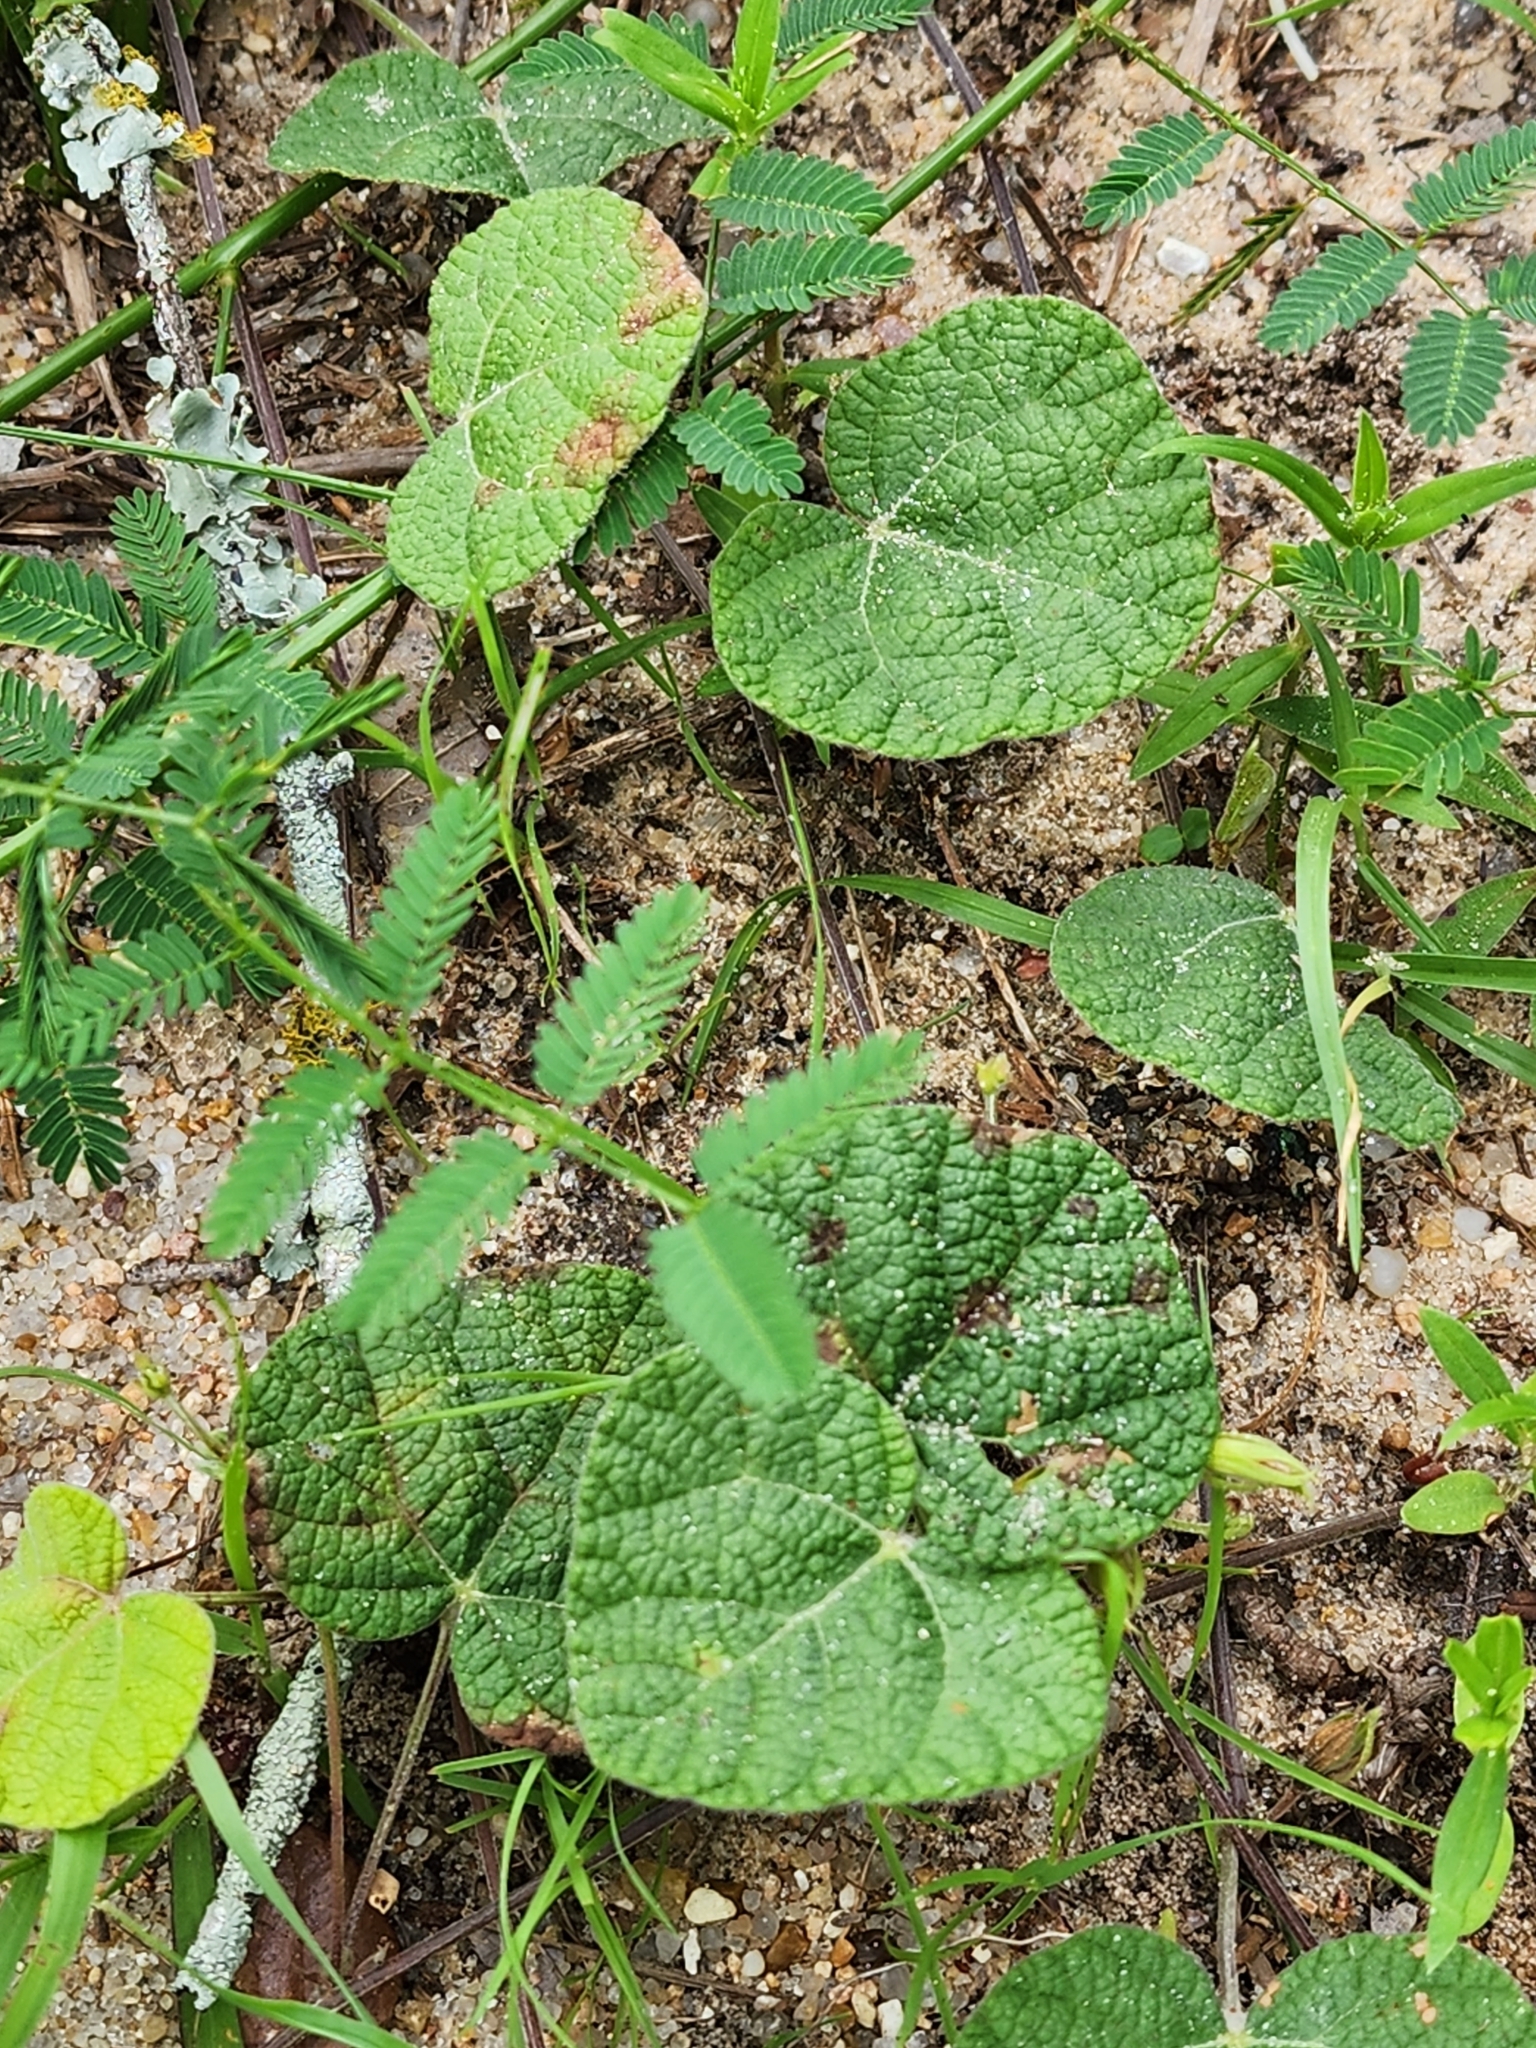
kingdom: Plantae
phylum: Tracheophyta
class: Magnoliopsida
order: Fabales
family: Fabaceae
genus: Rhynchosia
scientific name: Rhynchosia americana
